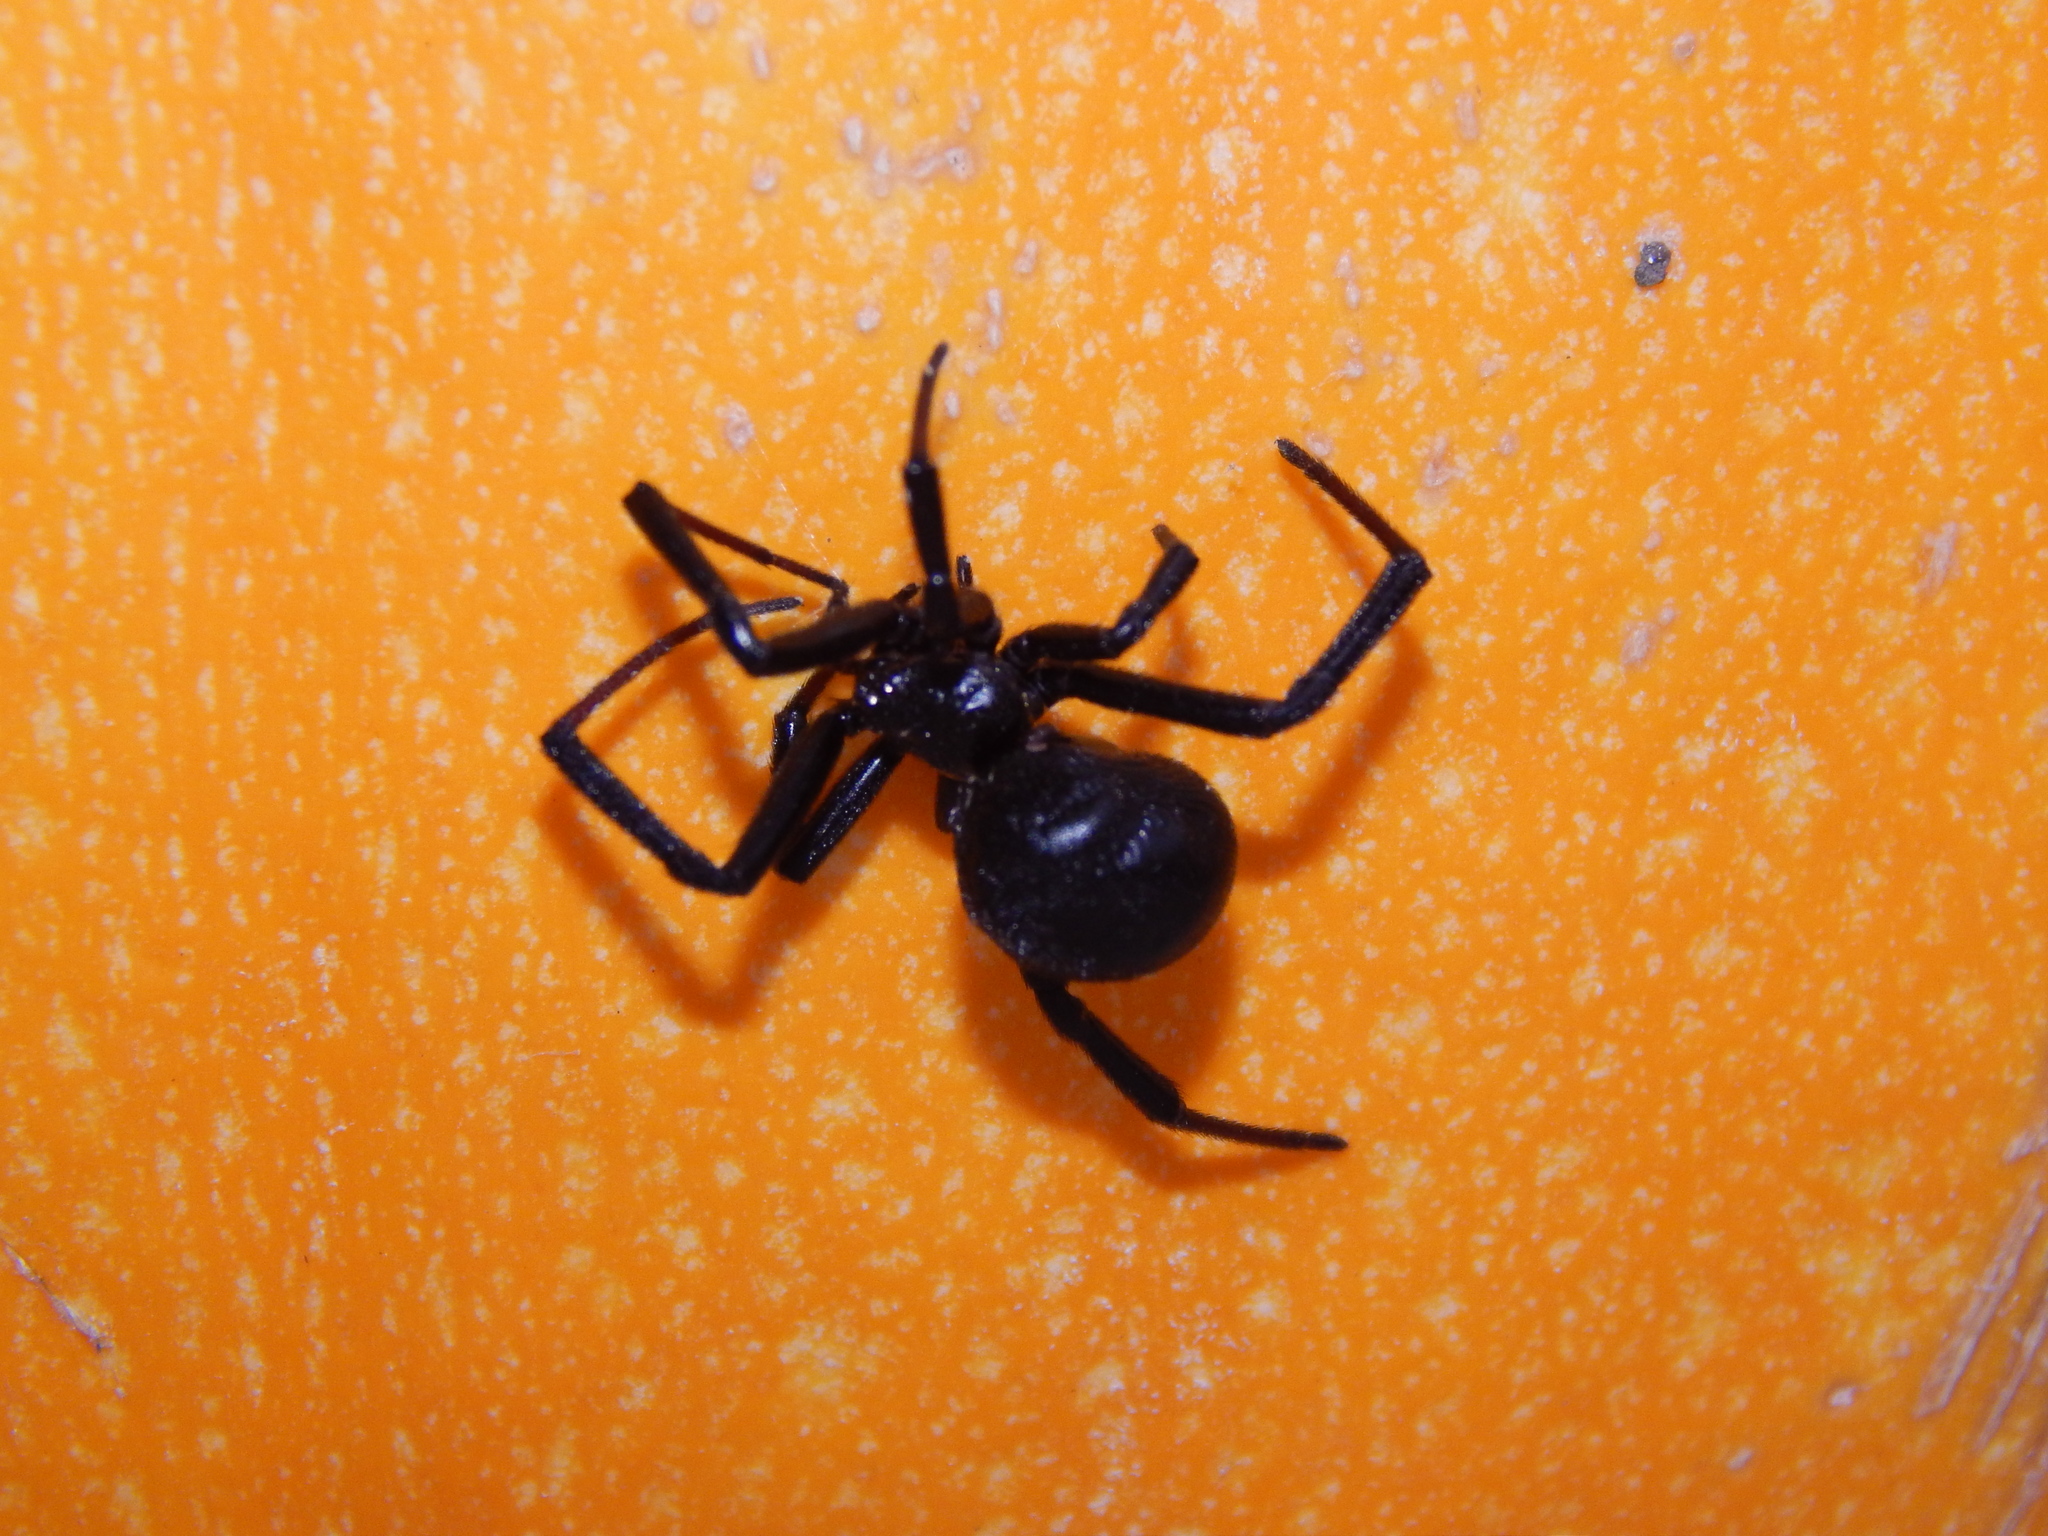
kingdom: Animalia
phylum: Arthropoda
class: Arachnida
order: Araneae
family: Theridiidae
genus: Latrodectus
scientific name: Latrodectus mactans
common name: Cobweb spiders
